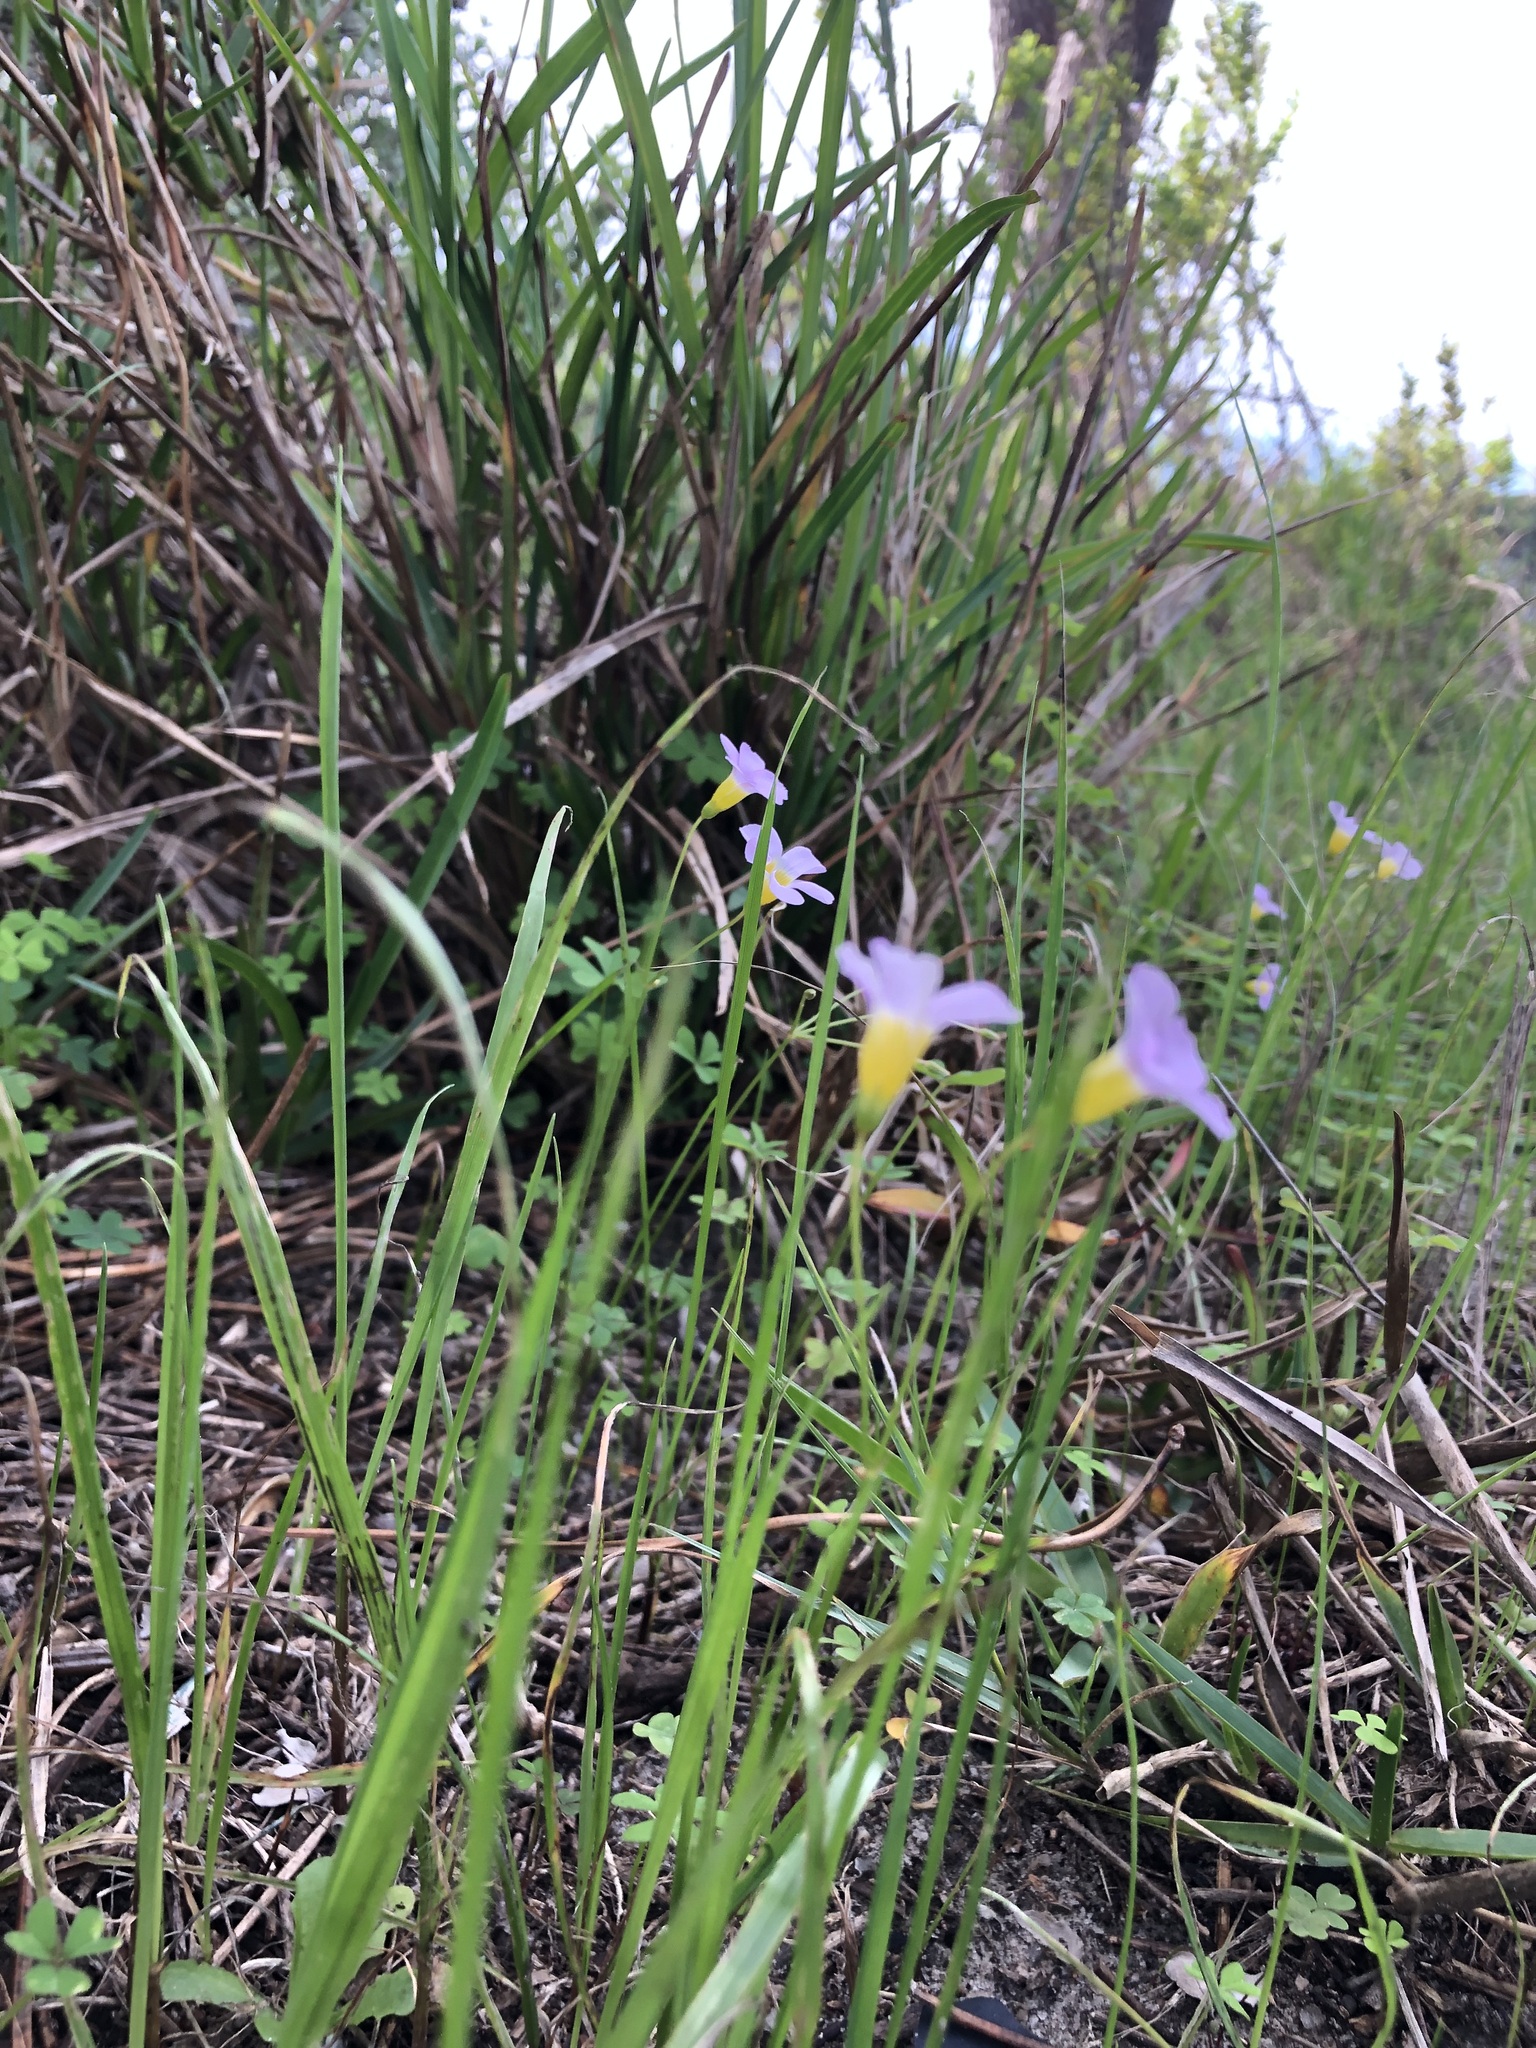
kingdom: Plantae
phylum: Tracheophyta
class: Magnoliopsida
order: Oxalidales
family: Oxalidaceae
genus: Oxalis
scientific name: Oxalis caprina
